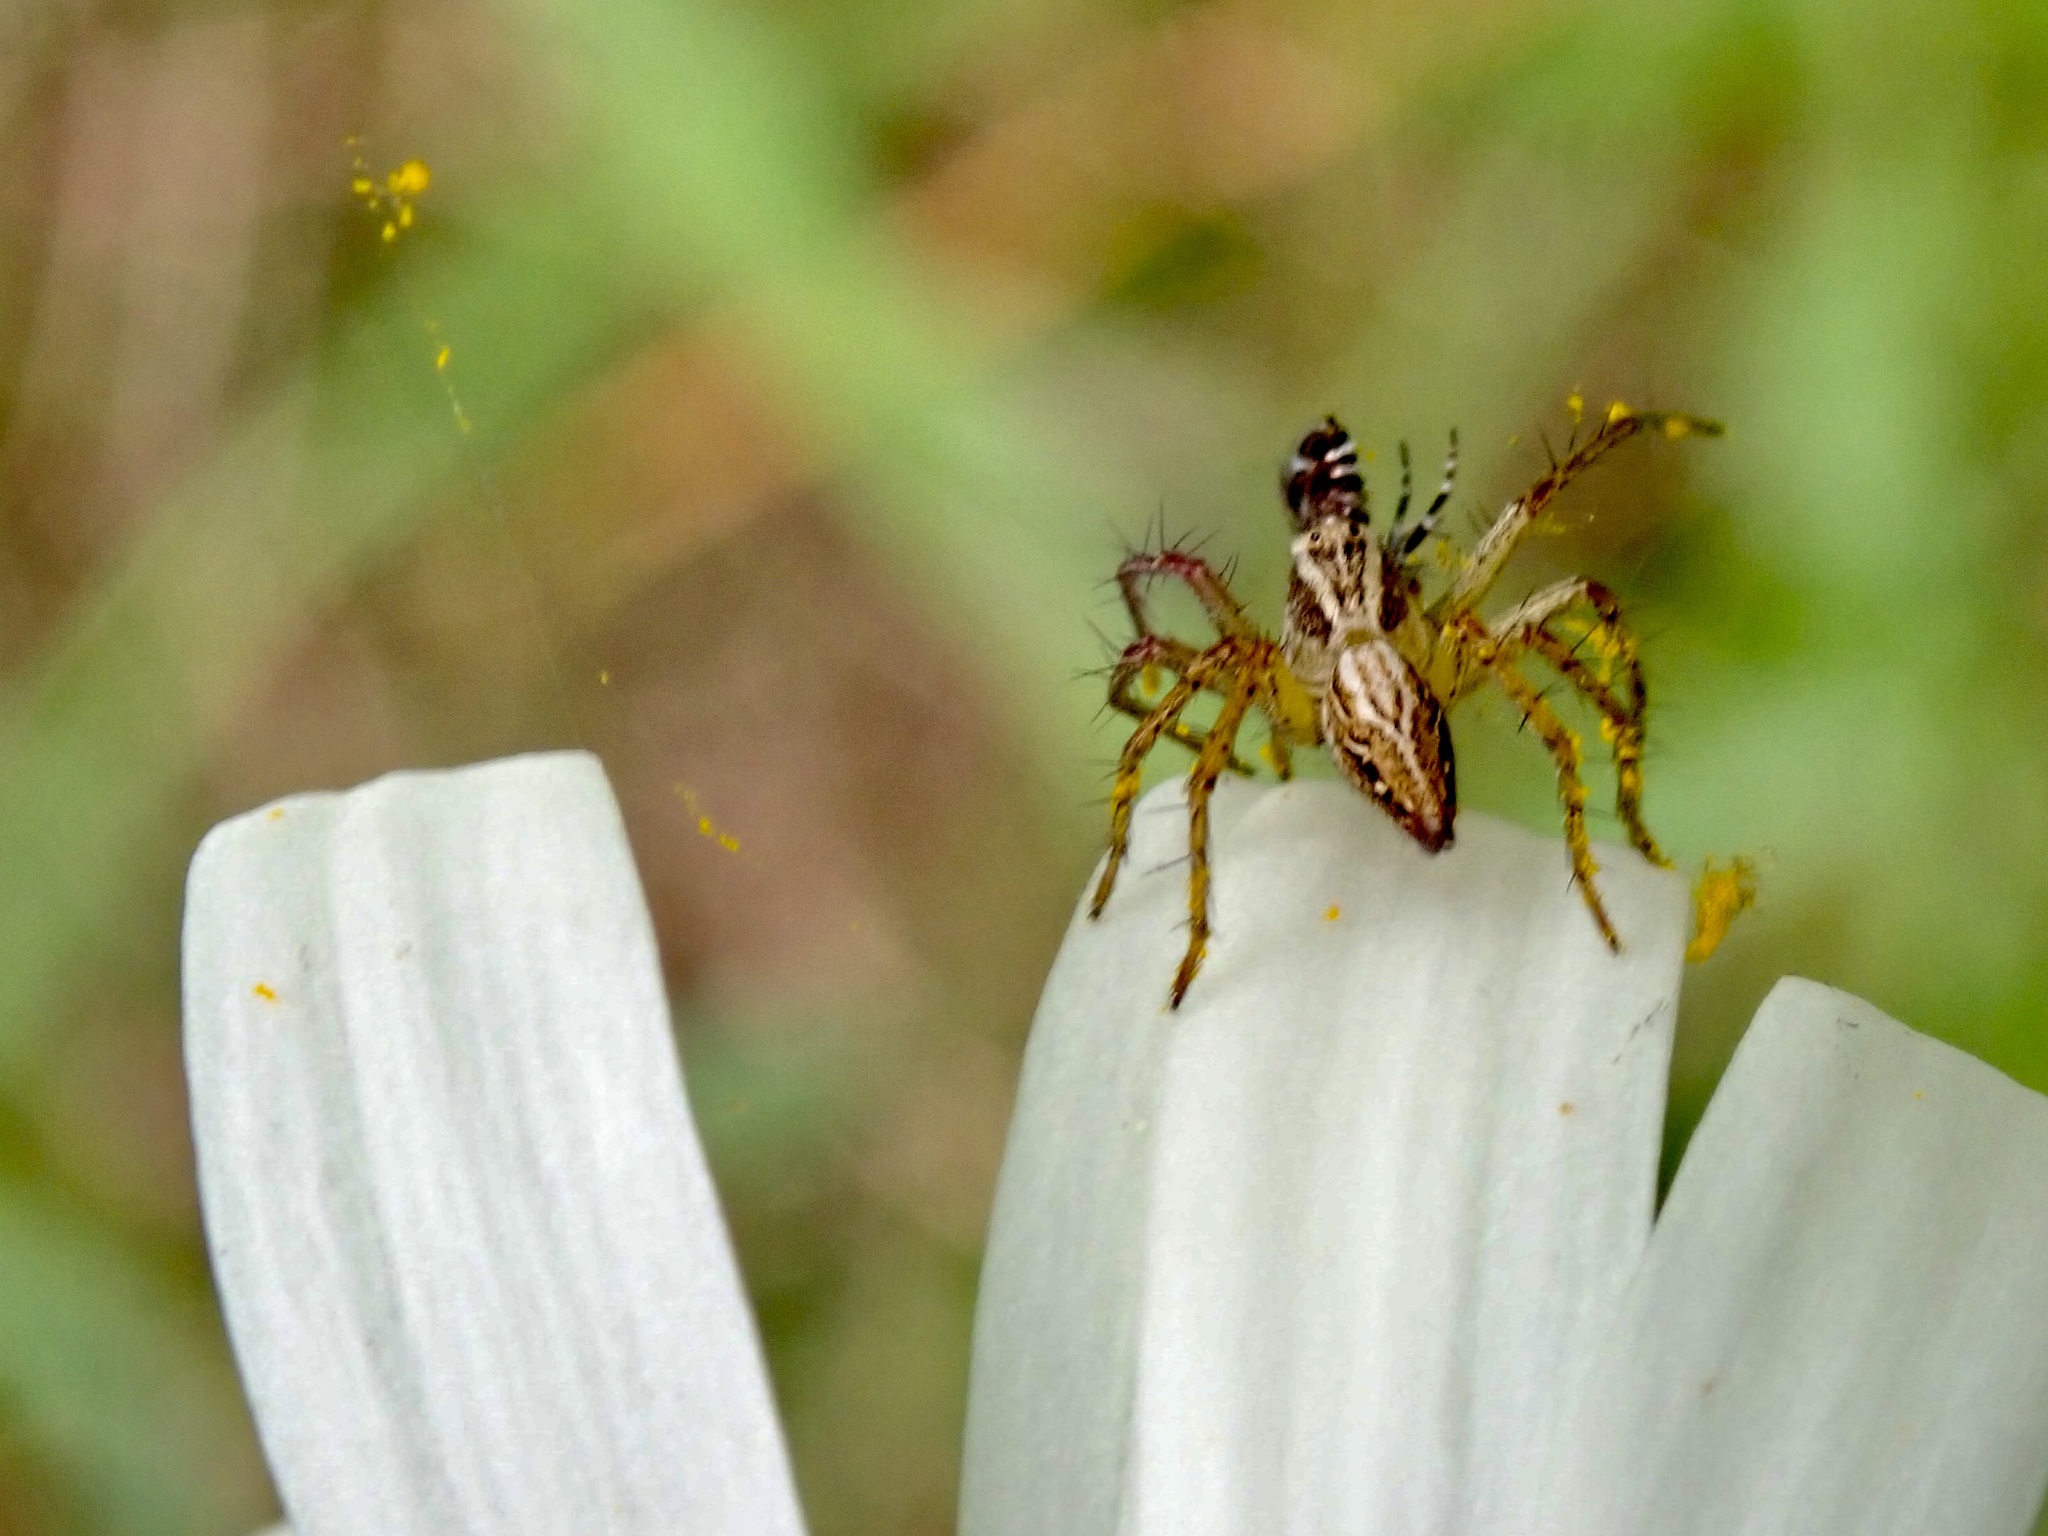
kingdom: Animalia
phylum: Arthropoda
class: Arachnida
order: Araneae
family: Oxyopidae
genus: Oxyopes
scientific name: Oxyopes gracilipes
